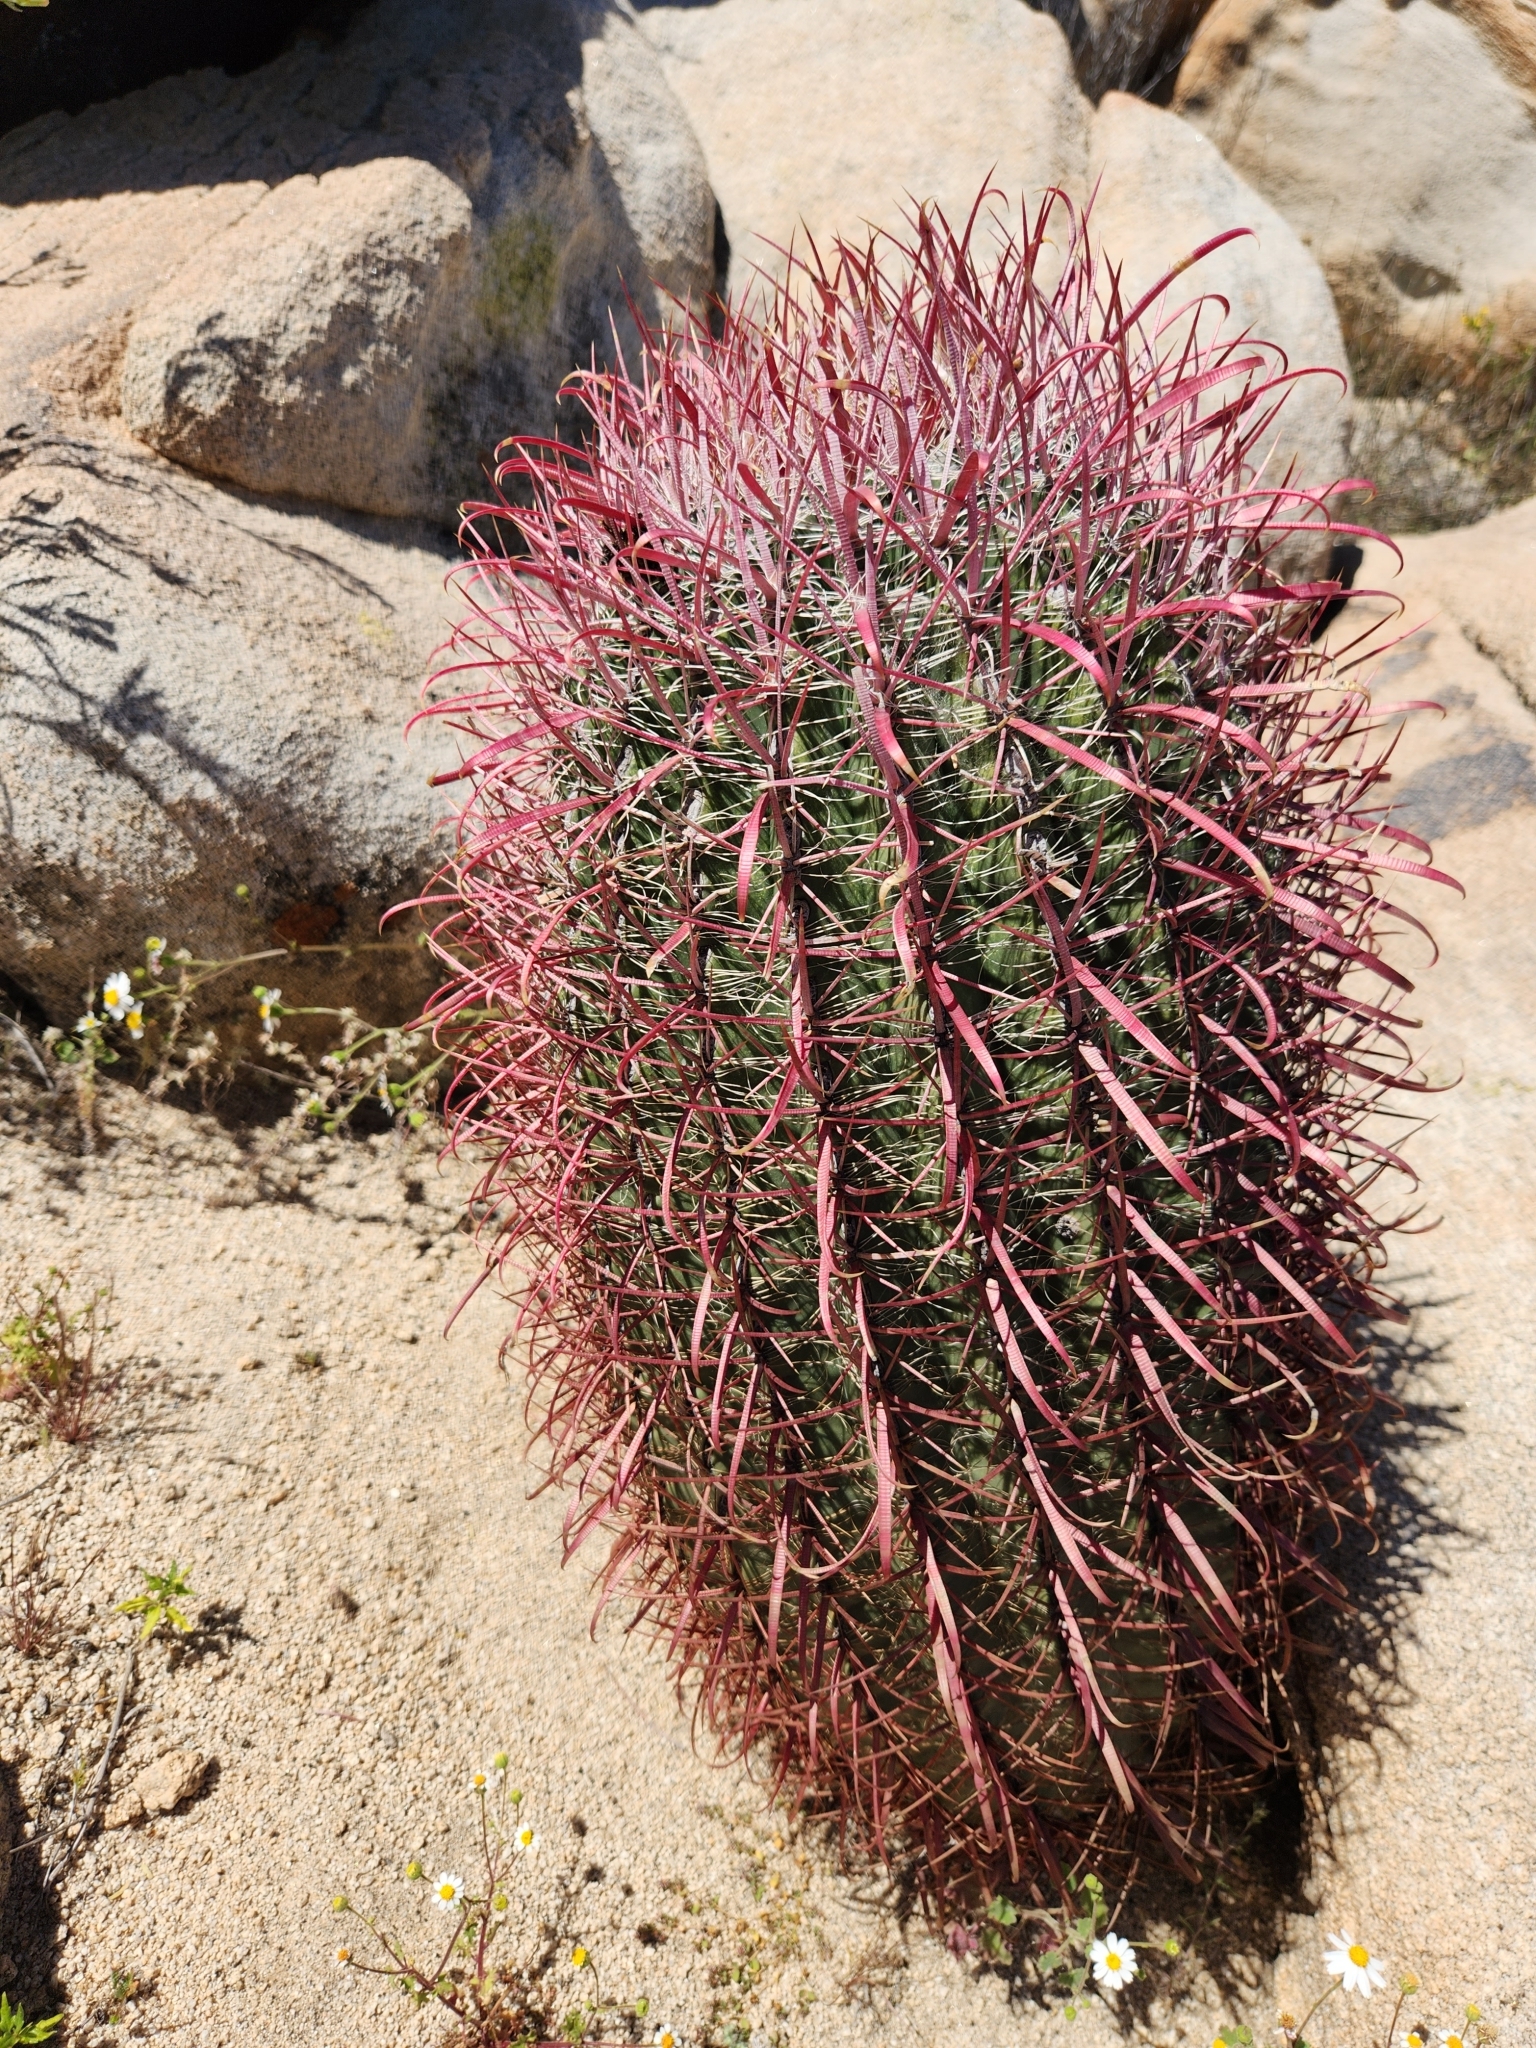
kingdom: Plantae
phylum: Tracheophyta
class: Magnoliopsida
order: Caryophyllales
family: Cactaceae
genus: Ferocactus
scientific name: Ferocactus gracilis
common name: Fire barrel cactus
